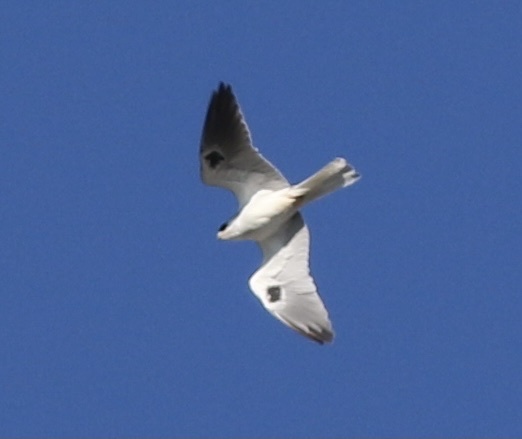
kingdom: Animalia
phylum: Chordata
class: Aves
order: Accipitriformes
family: Accipitridae
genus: Elanus
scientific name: Elanus leucurus
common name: White-tailed kite
